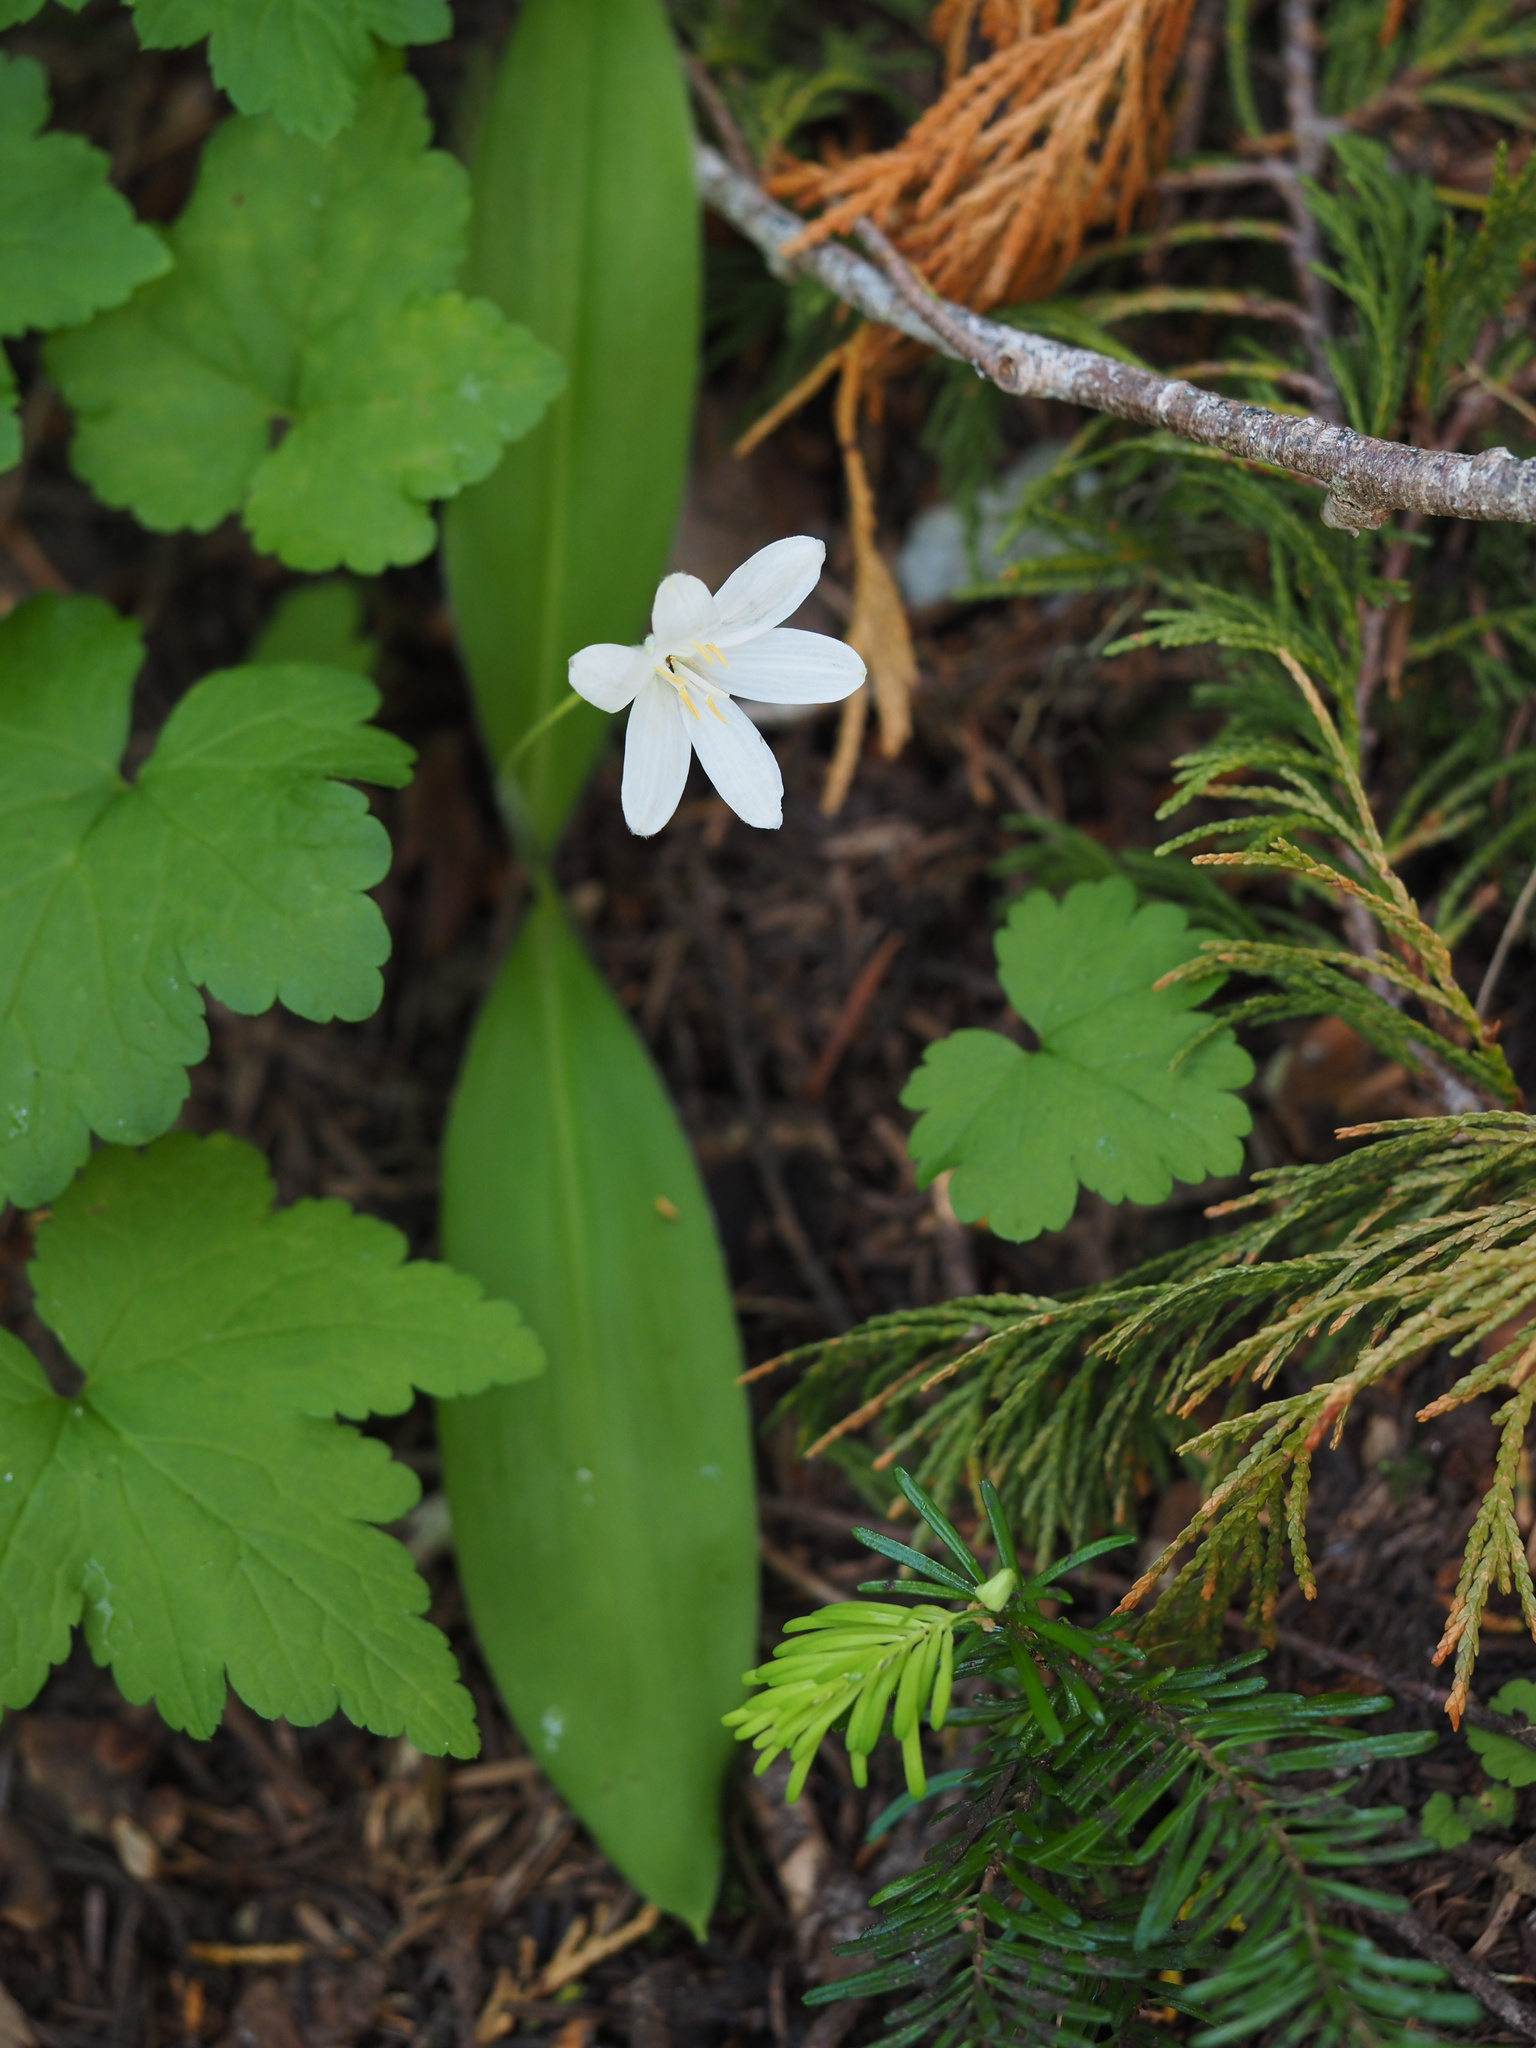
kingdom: Plantae
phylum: Tracheophyta
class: Liliopsida
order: Liliales
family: Liliaceae
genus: Clintonia
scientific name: Clintonia uniflora
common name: Queen's cup
